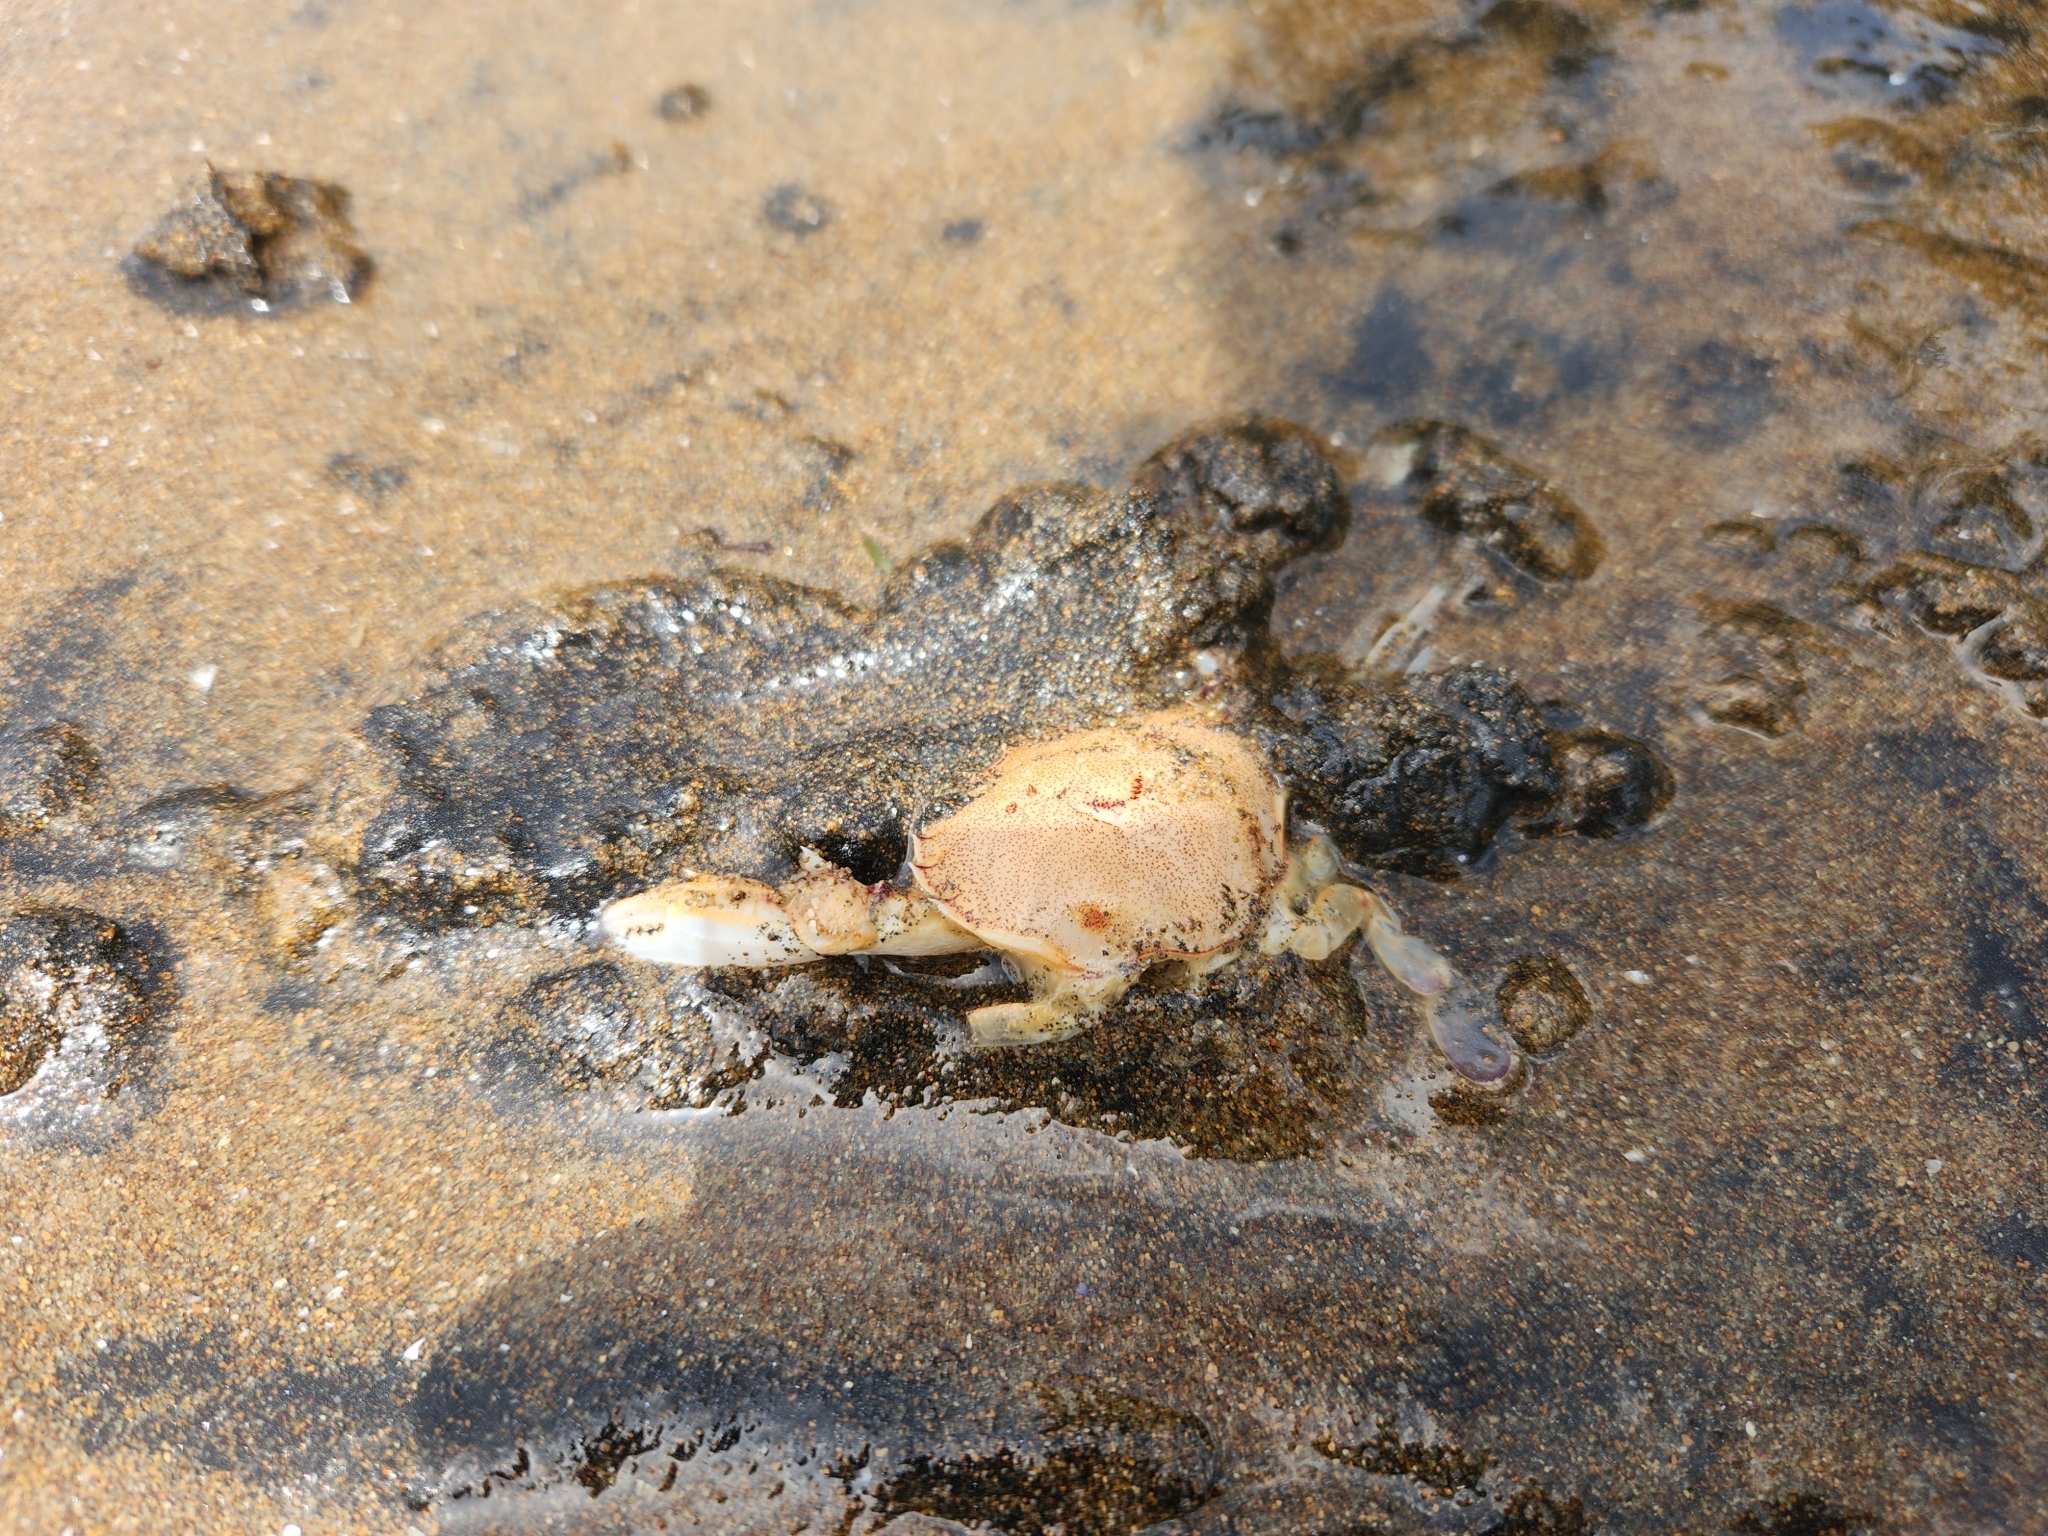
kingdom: Animalia
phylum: Arthropoda
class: Malacostraca
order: Decapoda
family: Ovalipidae
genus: Ovalipes
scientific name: Ovalipes catharus
